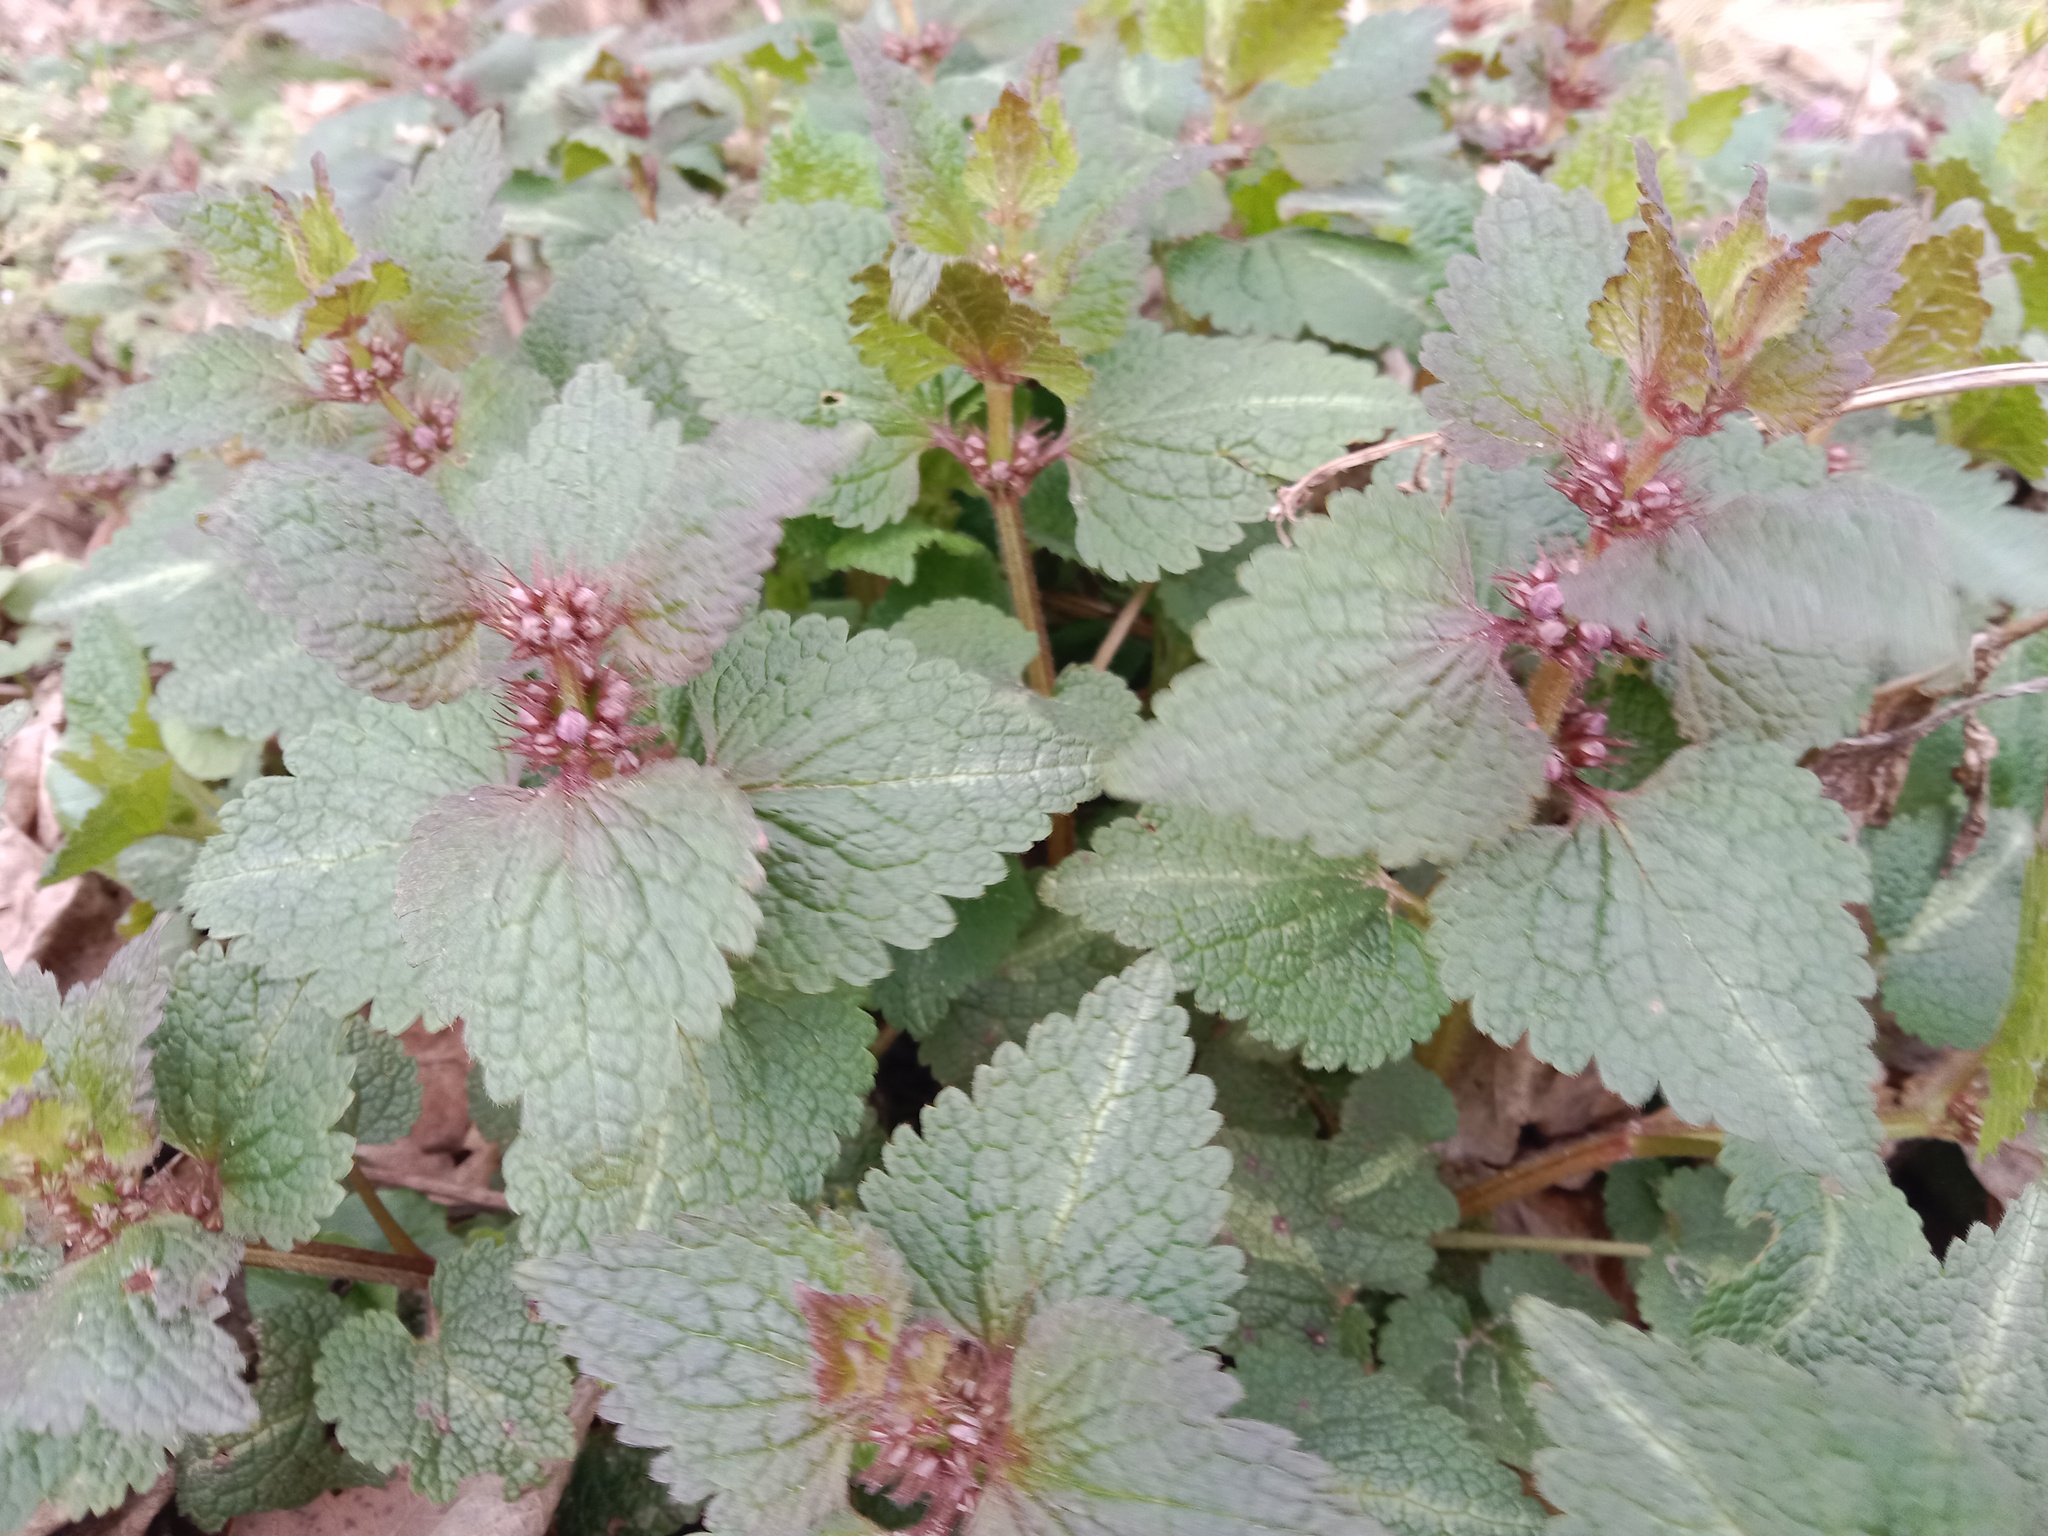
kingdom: Plantae
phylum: Tracheophyta
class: Magnoliopsida
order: Lamiales
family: Lamiaceae
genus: Lamium
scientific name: Lamium maculatum
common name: Spotted dead-nettle
